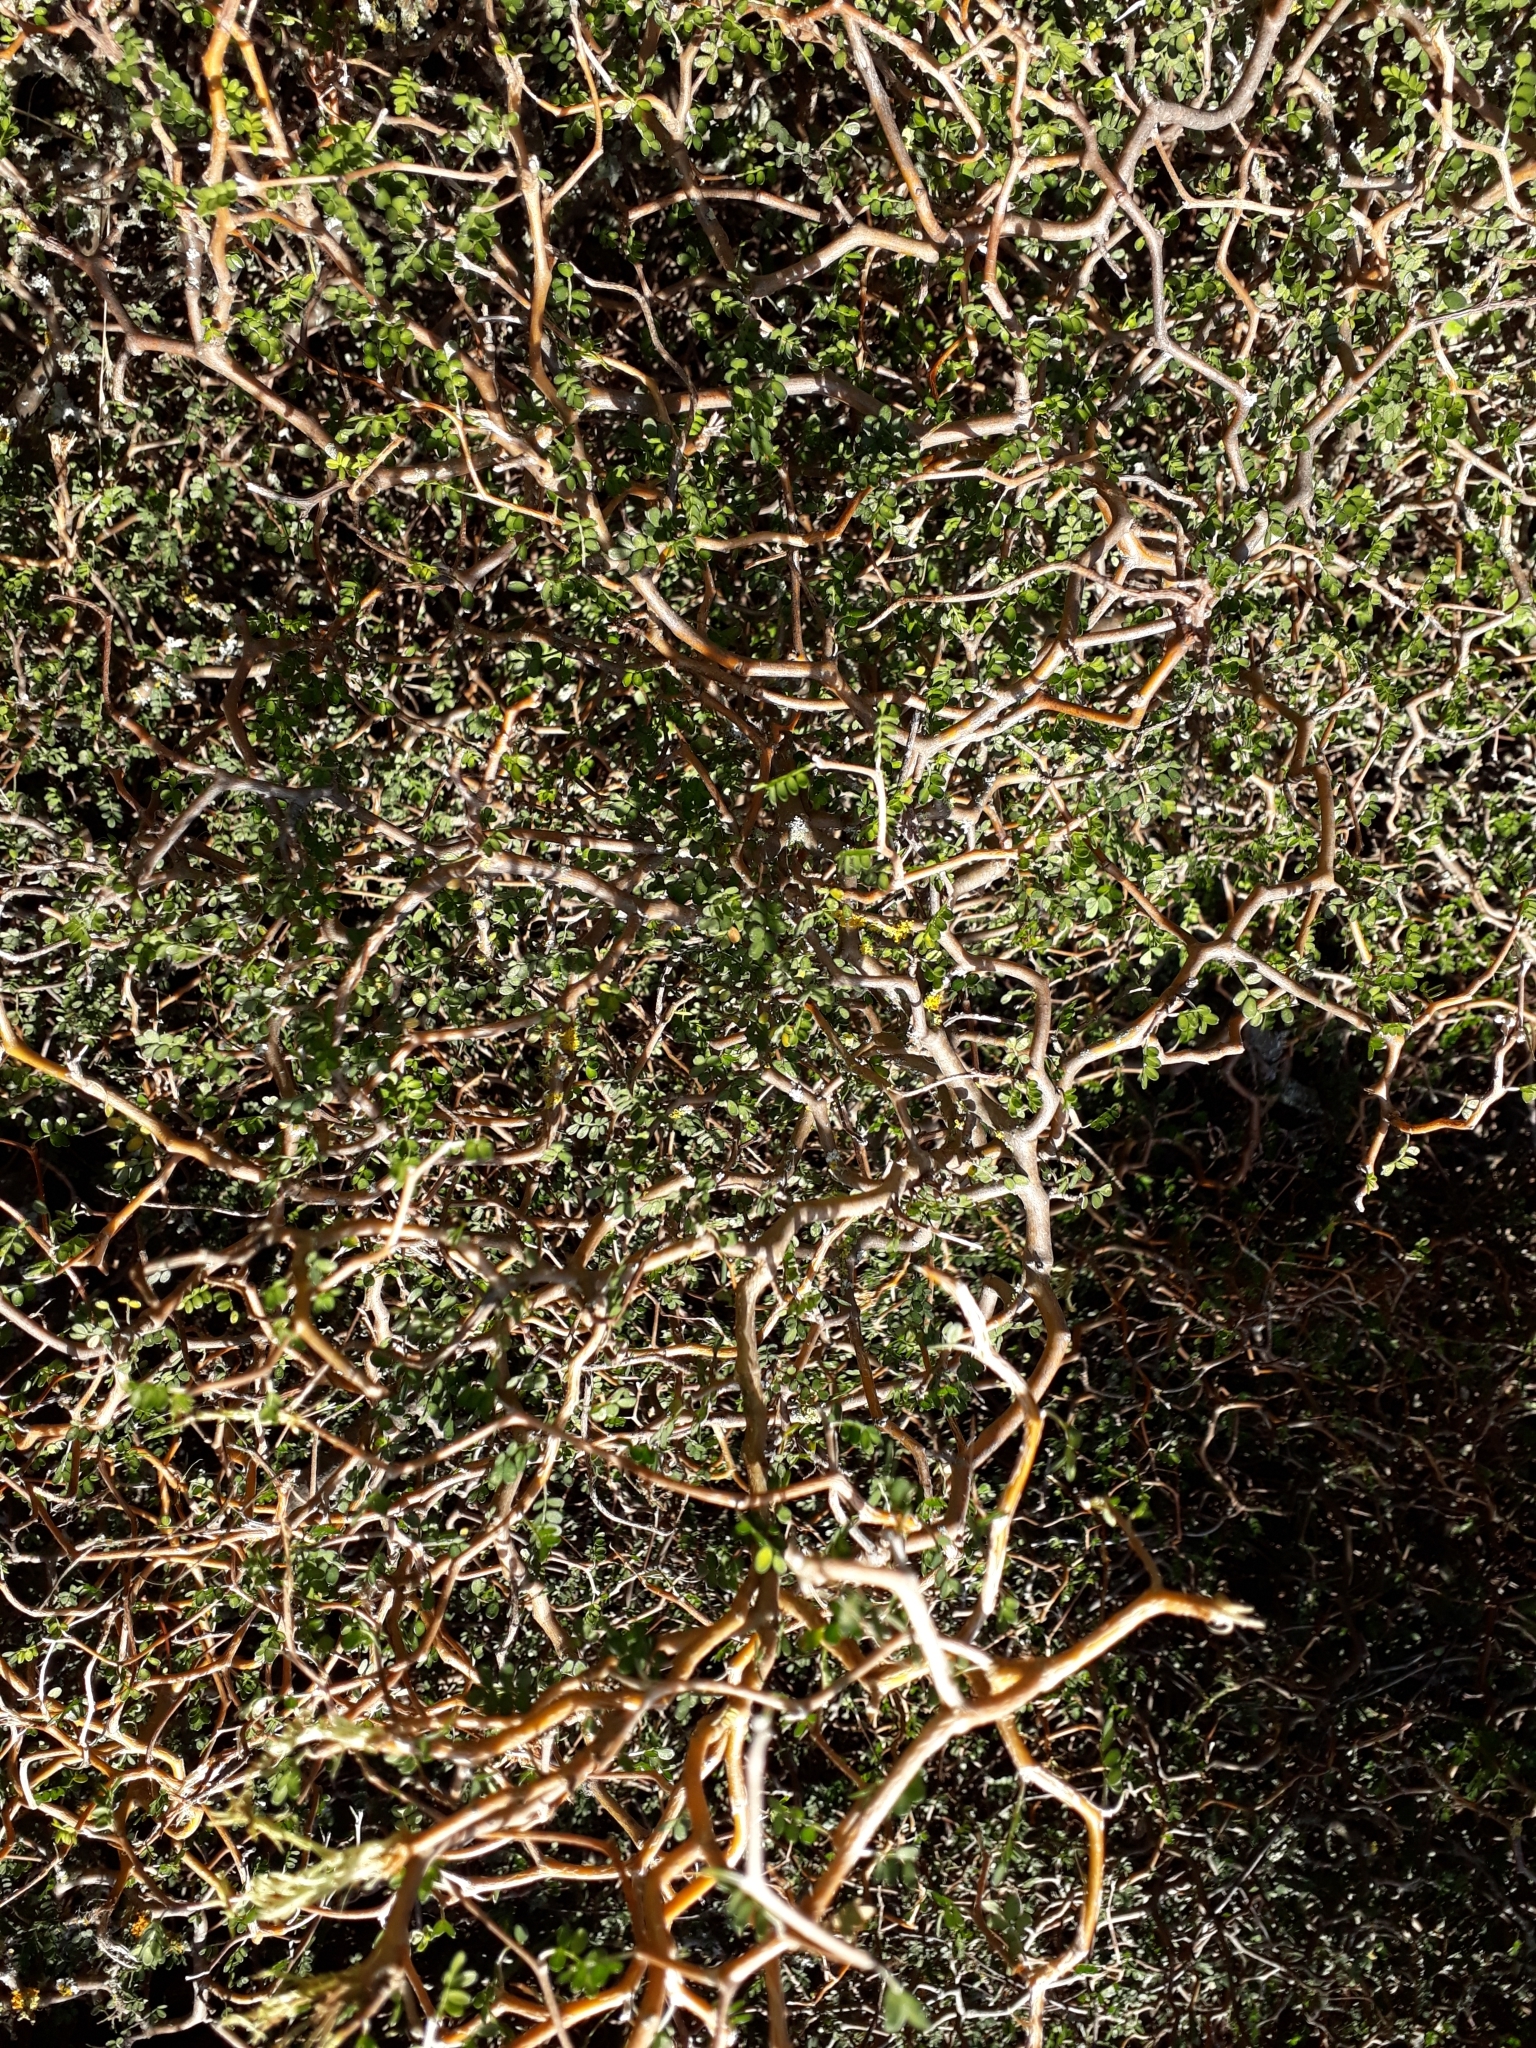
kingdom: Plantae
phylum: Tracheophyta
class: Magnoliopsida
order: Fabales
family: Fabaceae
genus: Sophora
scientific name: Sophora prostrata
